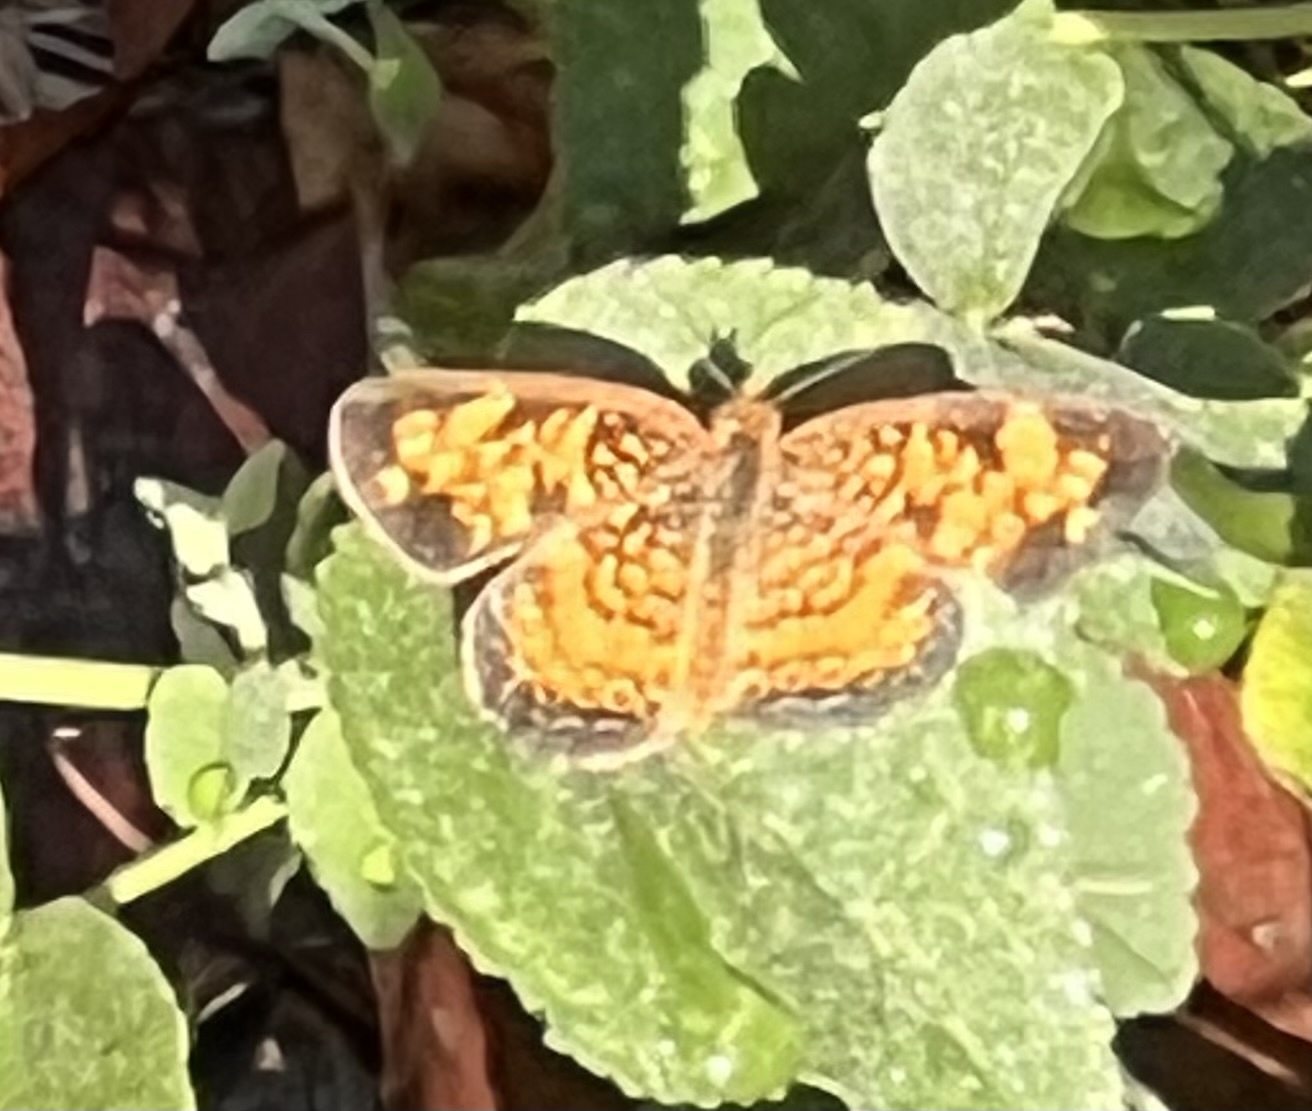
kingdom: Animalia
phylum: Arthropoda
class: Insecta
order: Lepidoptera
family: Nymphalidae
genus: Phyciodes
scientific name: Phyciodes tharos
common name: Pearl crescent
